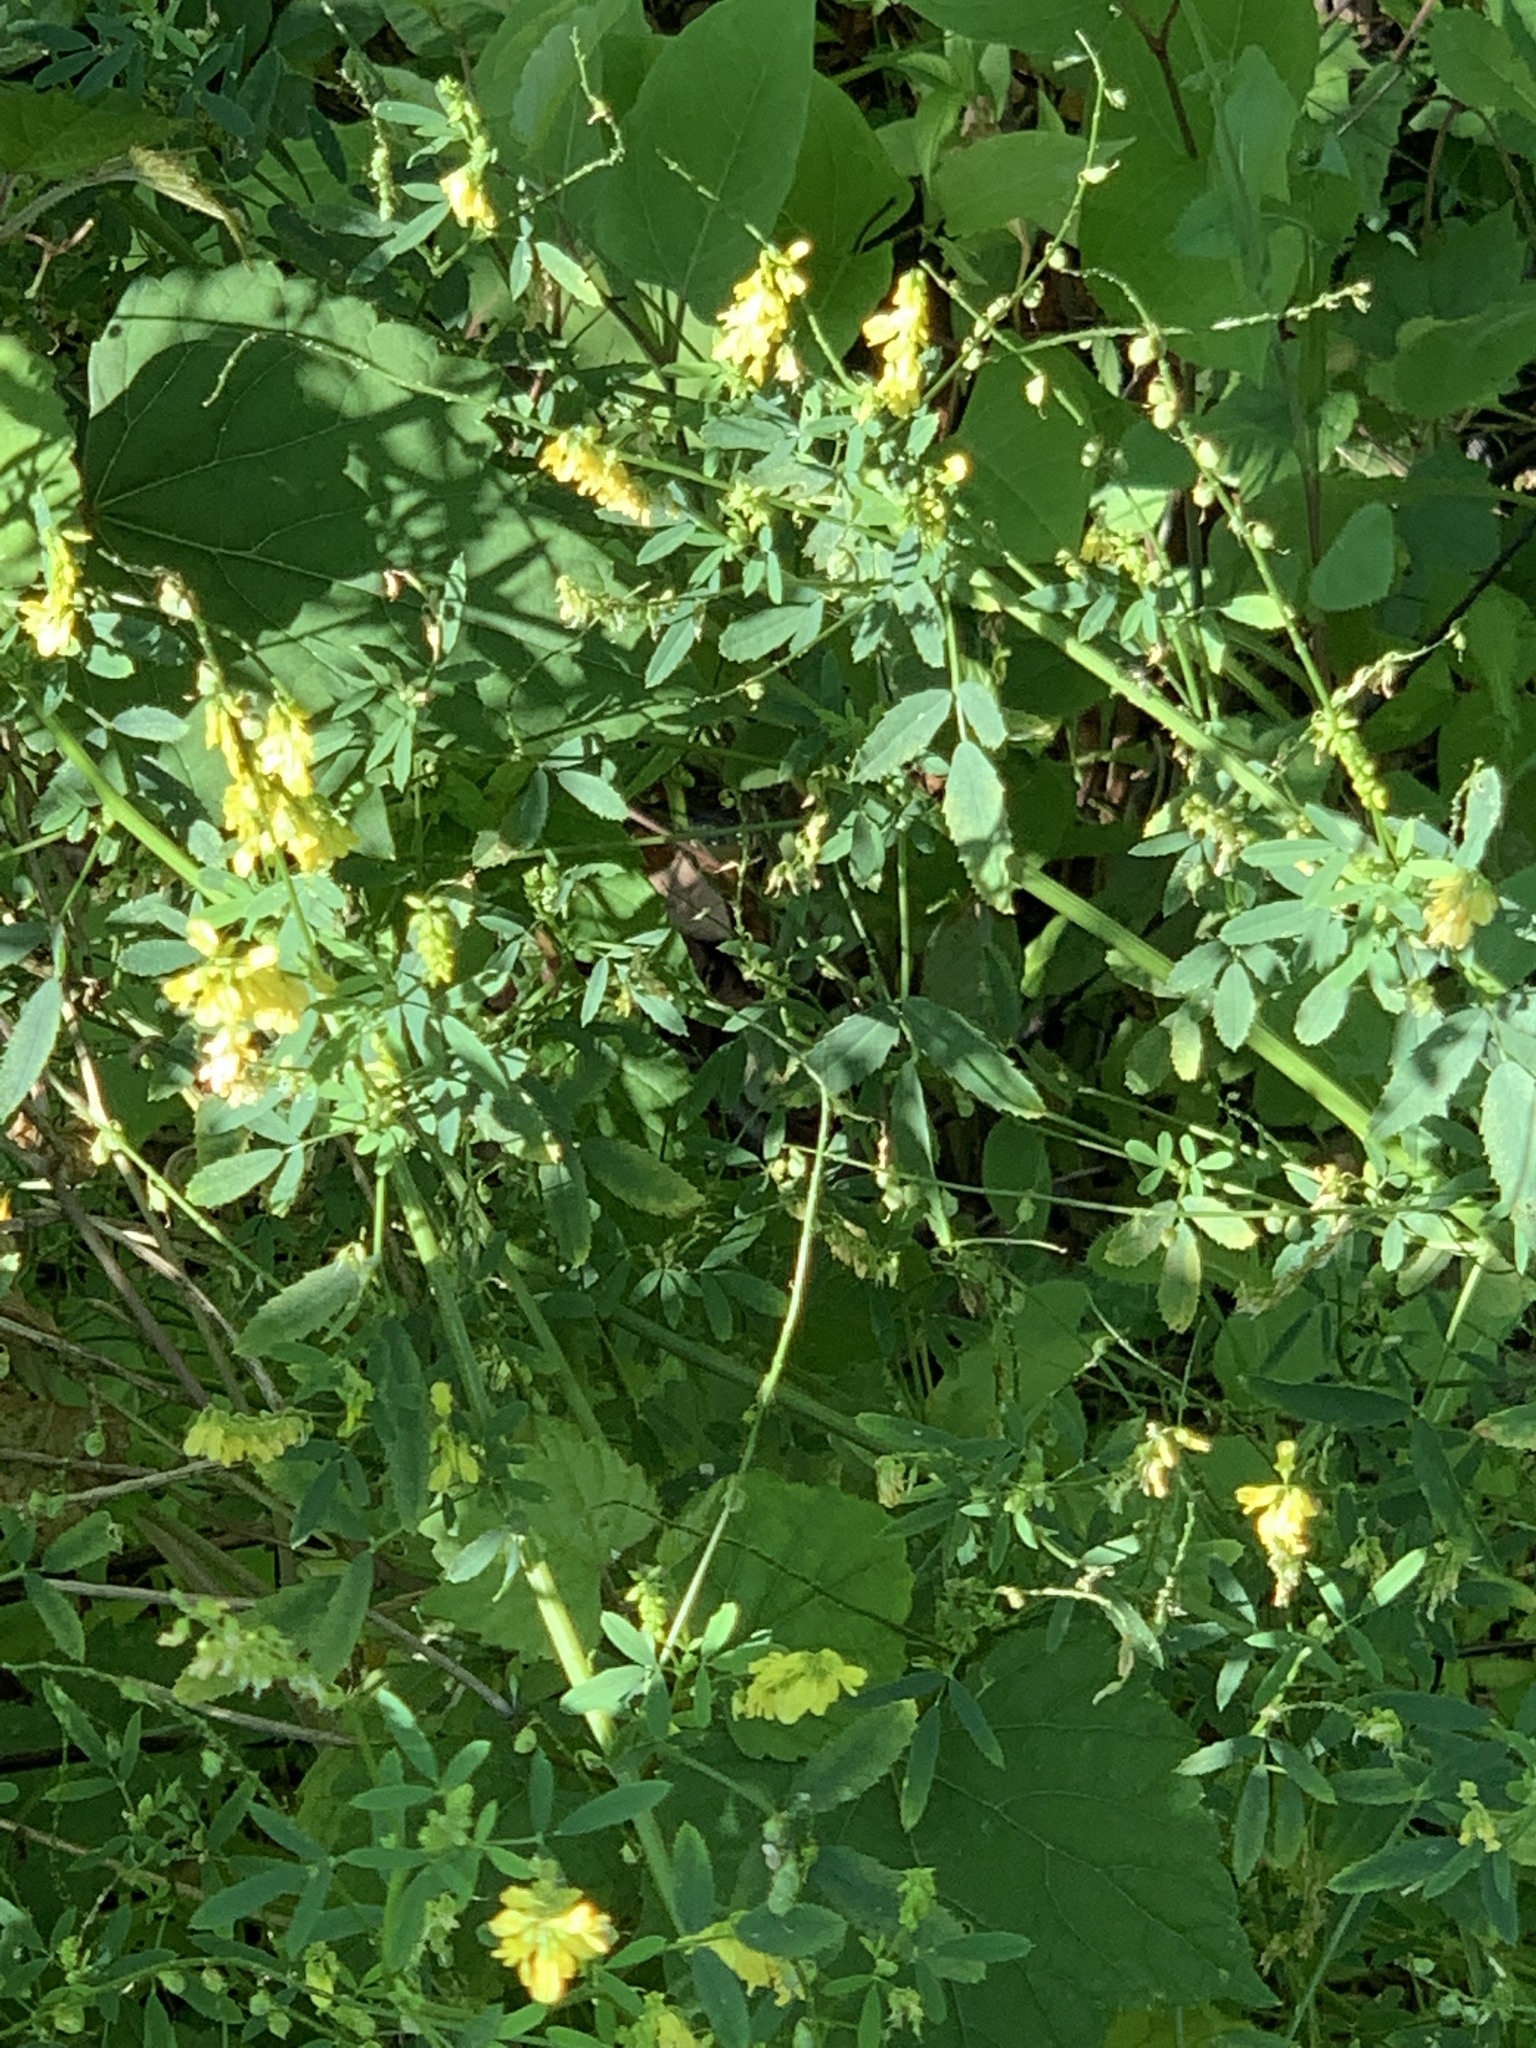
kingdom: Plantae
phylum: Tracheophyta
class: Magnoliopsida
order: Fabales
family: Fabaceae
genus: Melilotus
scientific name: Melilotus officinalis
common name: Sweetclover
